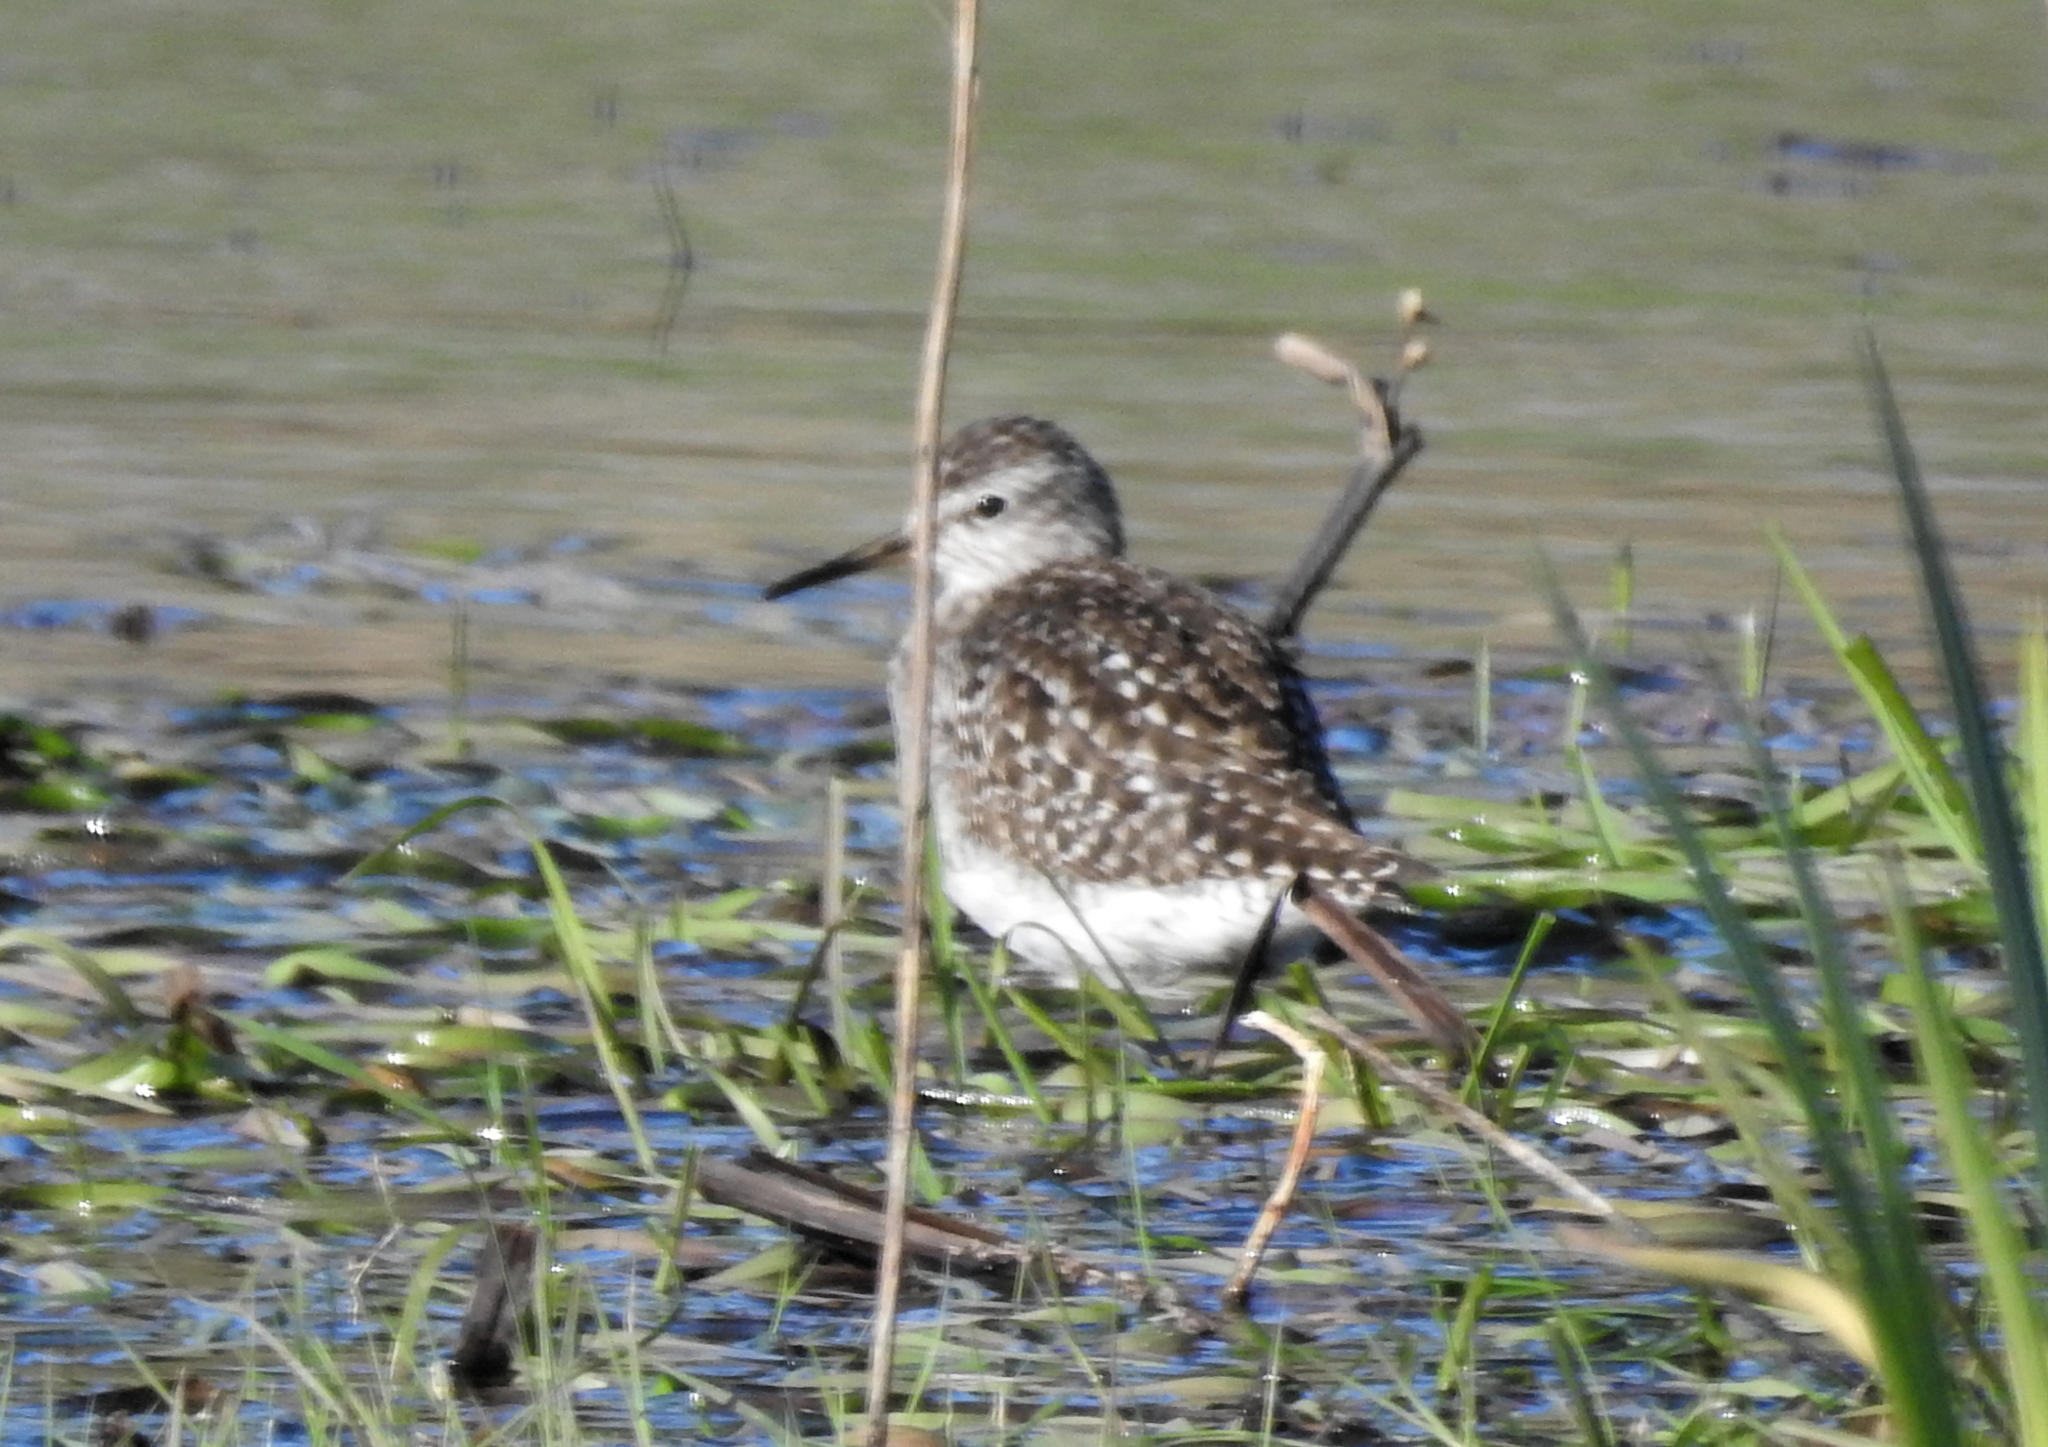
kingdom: Animalia
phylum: Chordata
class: Aves
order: Charadriiformes
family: Scolopacidae
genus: Tringa
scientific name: Tringa glareola
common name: Wood sandpiper
